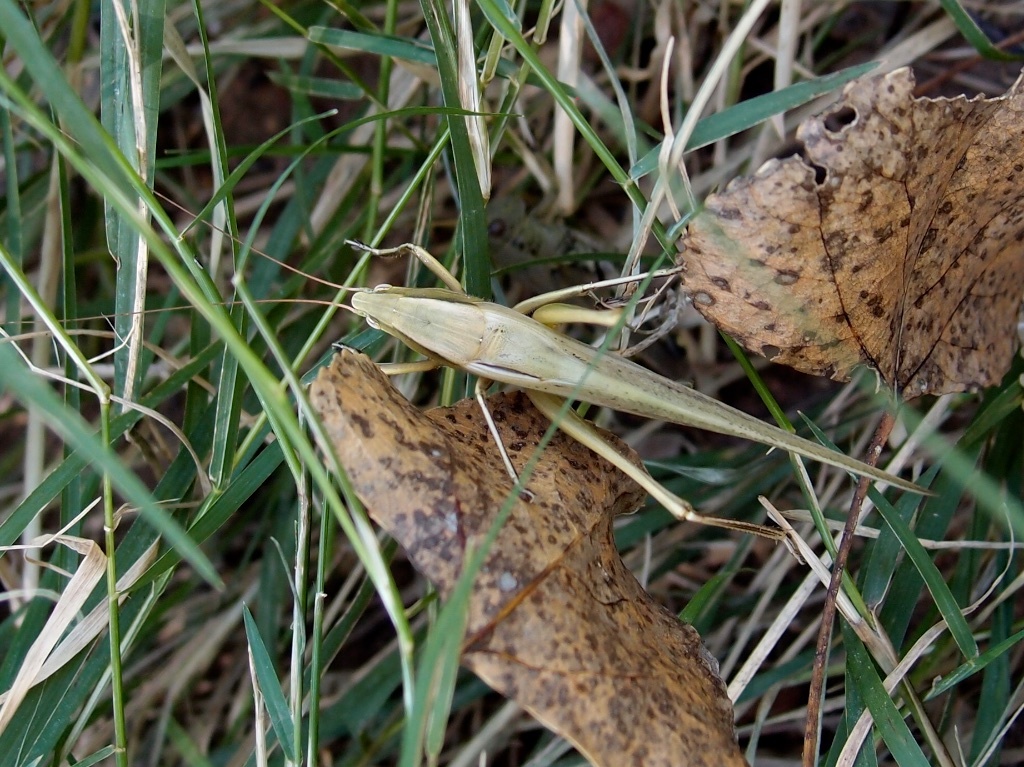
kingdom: Animalia
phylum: Arthropoda
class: Insecta
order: Orthoptera
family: Tettigoniidae
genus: Neoconocephalus
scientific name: Neoconocephalus triops
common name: Broad-tipped conehead
